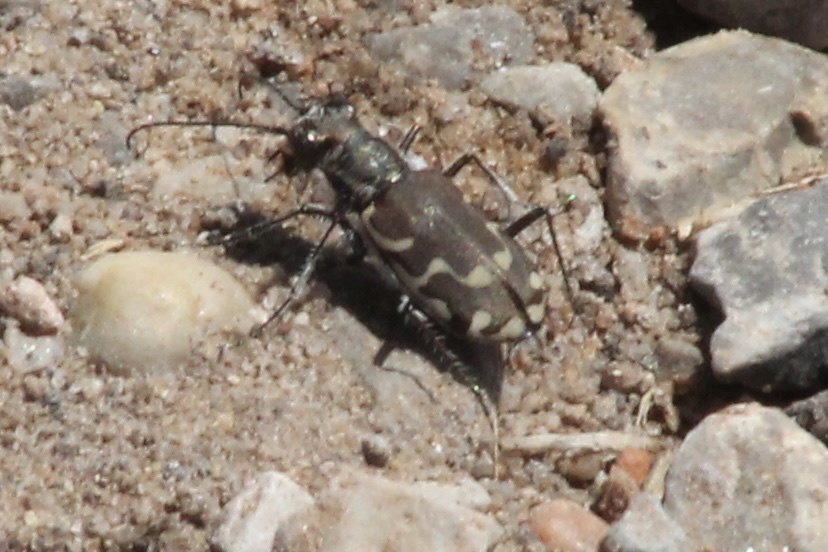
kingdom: Animalia
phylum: Arthropoda
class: Insecta
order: Coleoptera
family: Carabidae
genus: Cicindela
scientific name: Cicindela repanda
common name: Bronzed tiger beetle
